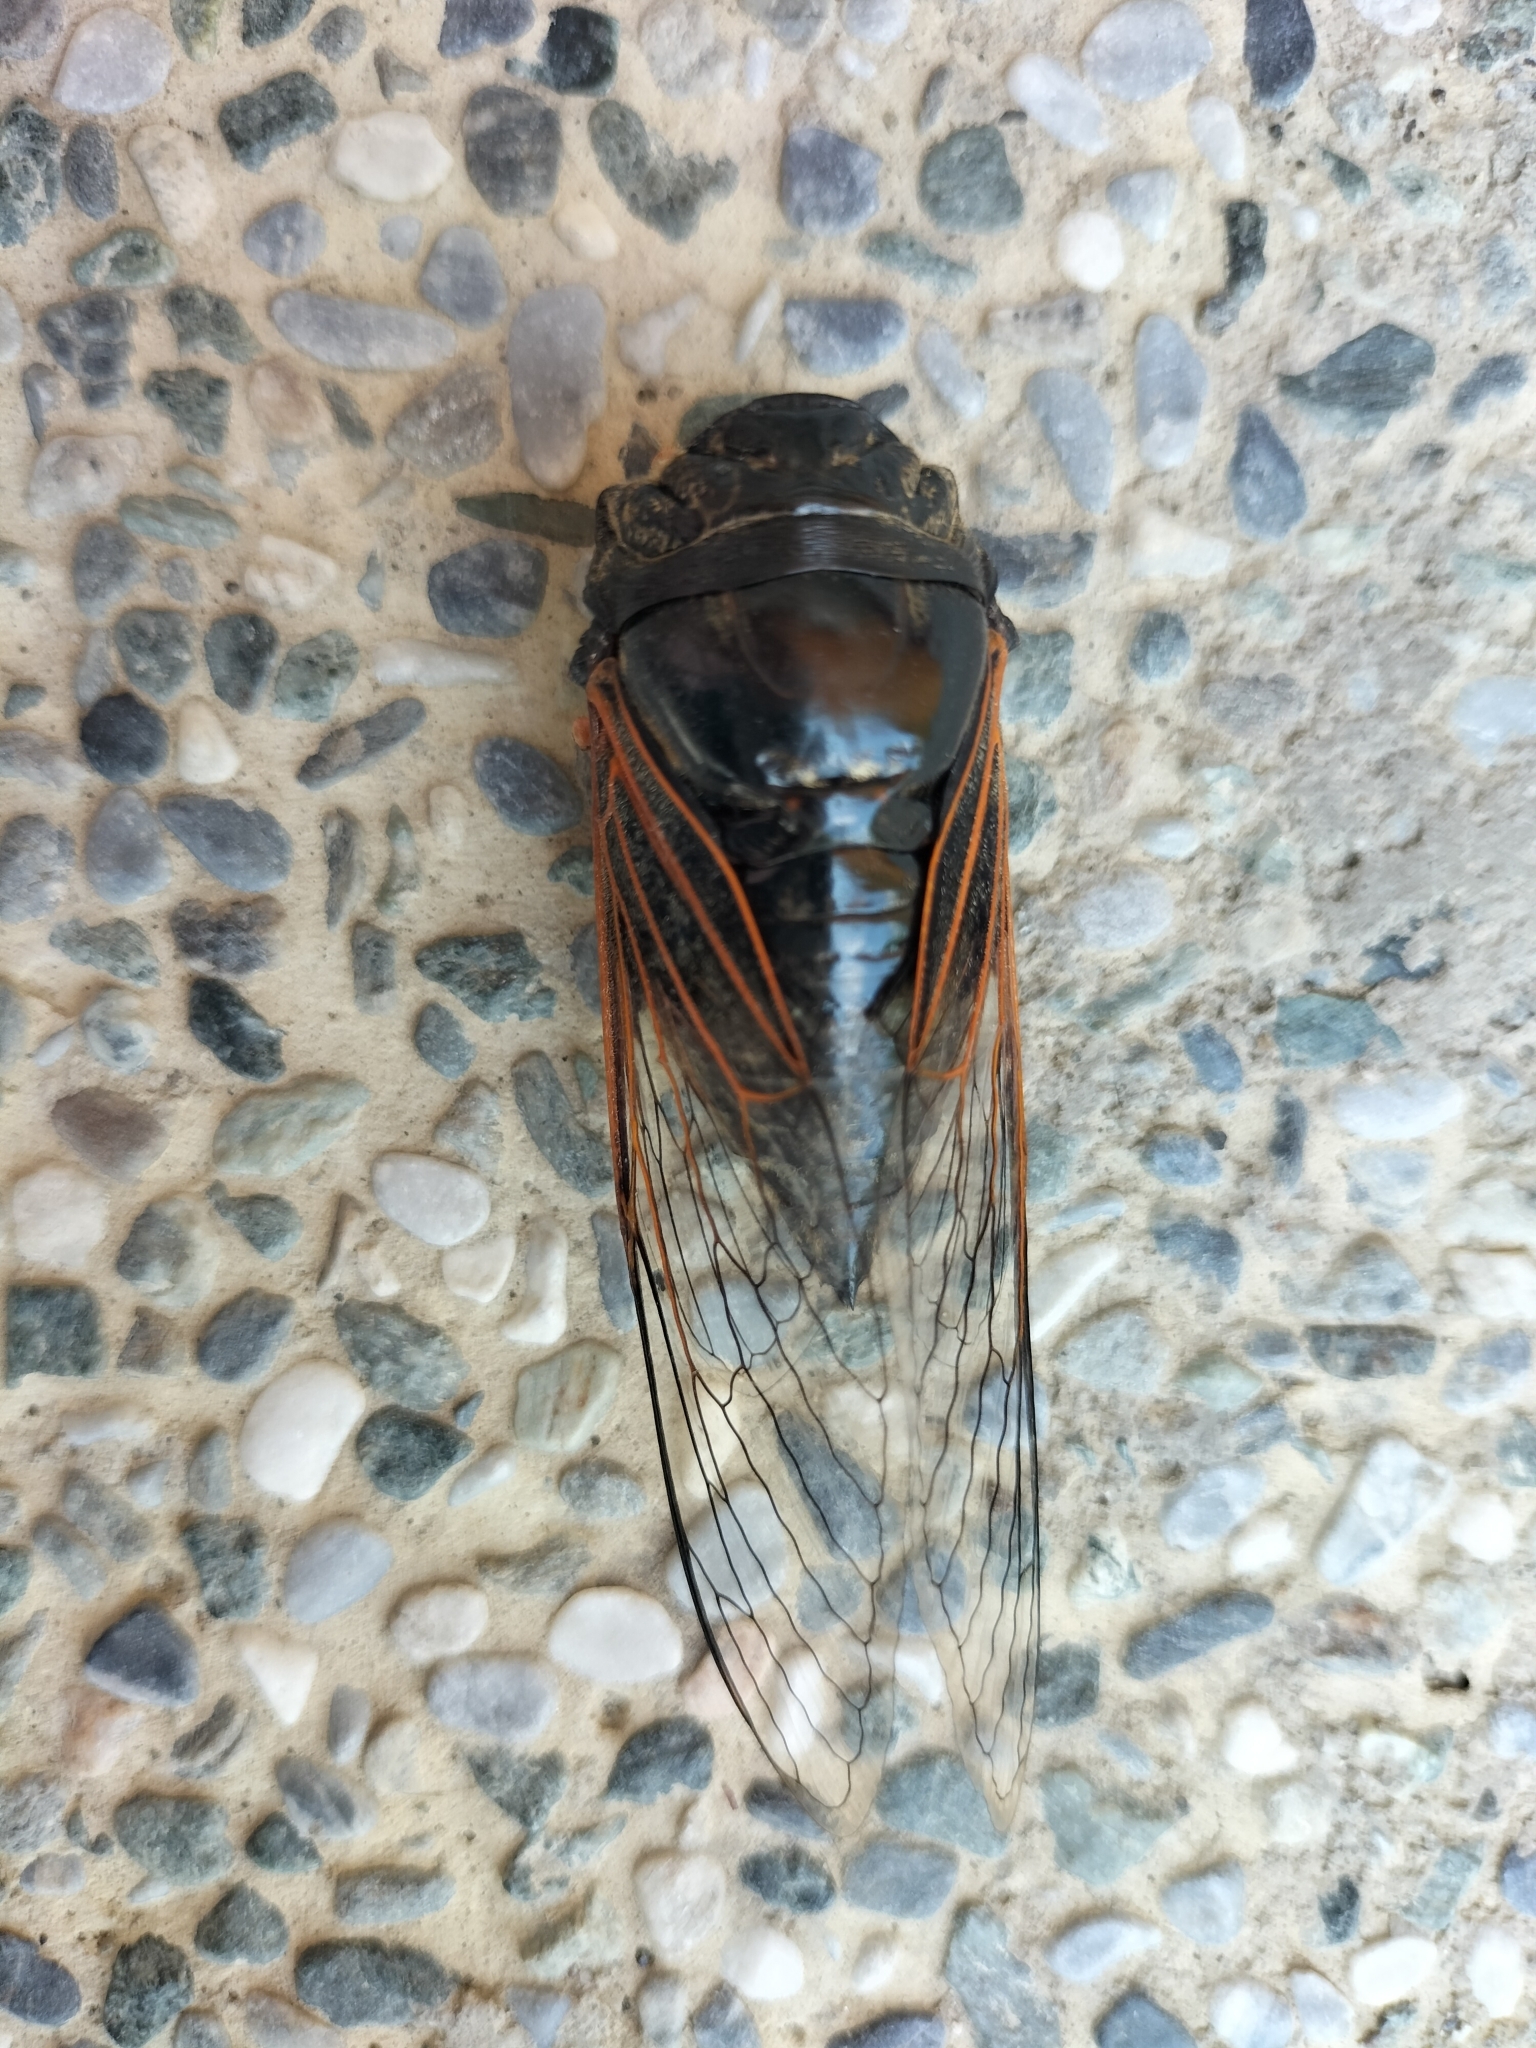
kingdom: Animalia
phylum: Arthropoda
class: Insecta
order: Hemiptera
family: Cicadidae
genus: Cryptotympana
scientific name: Cryptotympana atrata
